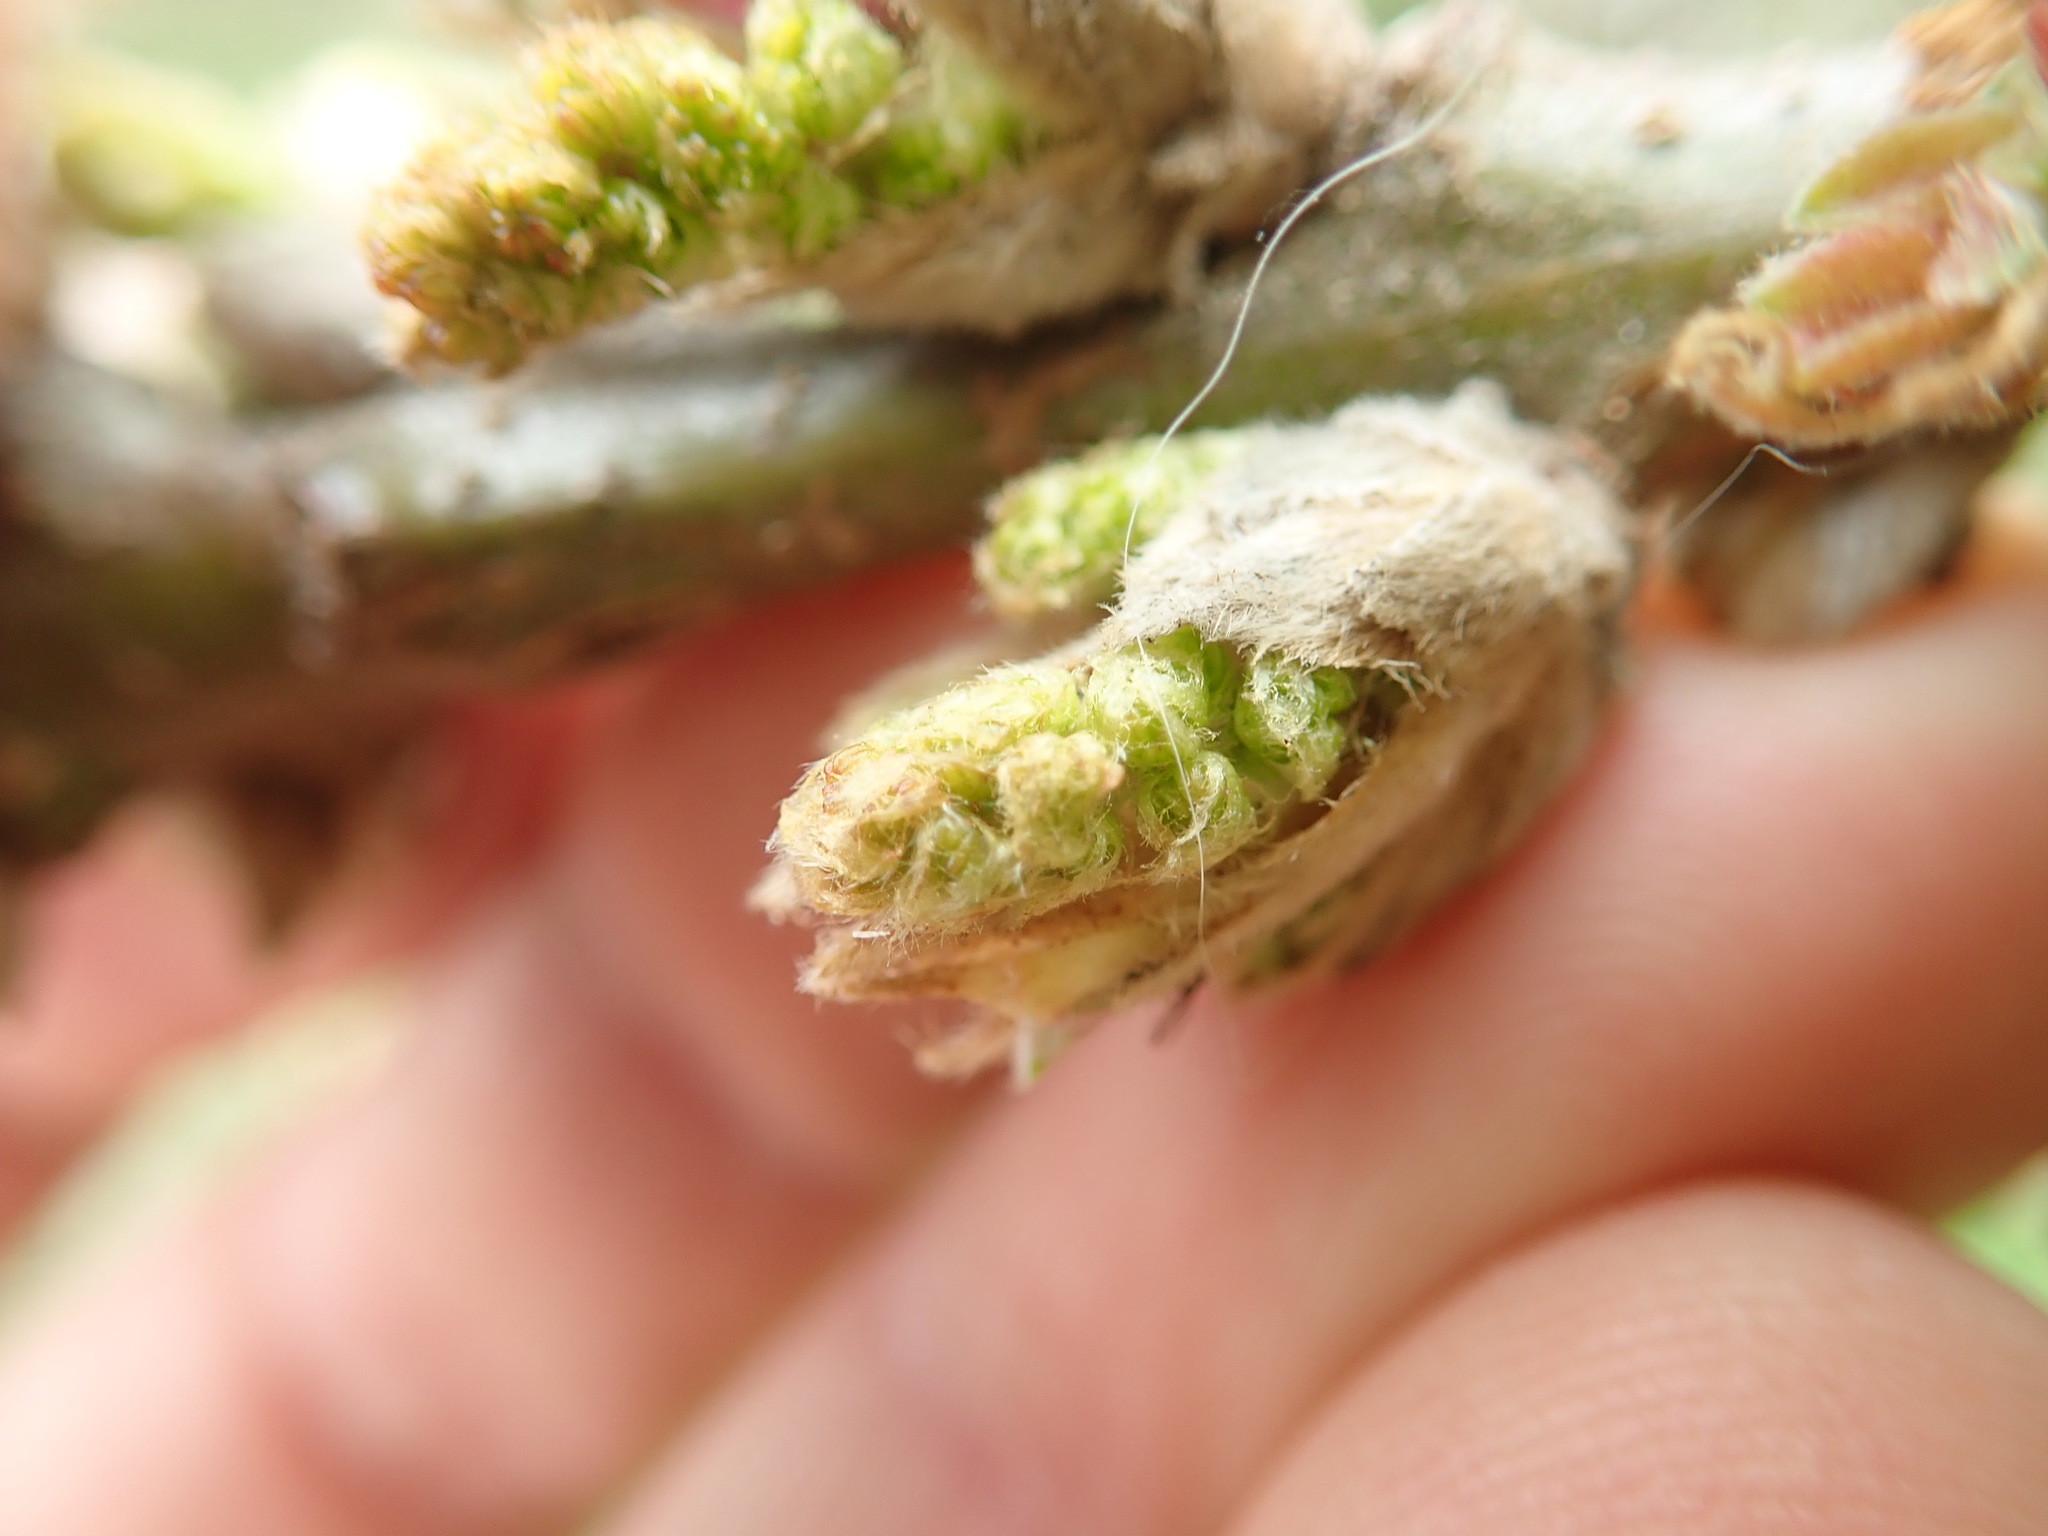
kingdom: Plantae
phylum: Tracheophyta
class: Magnoliopsida
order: Fagales
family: Fagaceae
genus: Quercus
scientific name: Quercus garryana
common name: Garry oak
